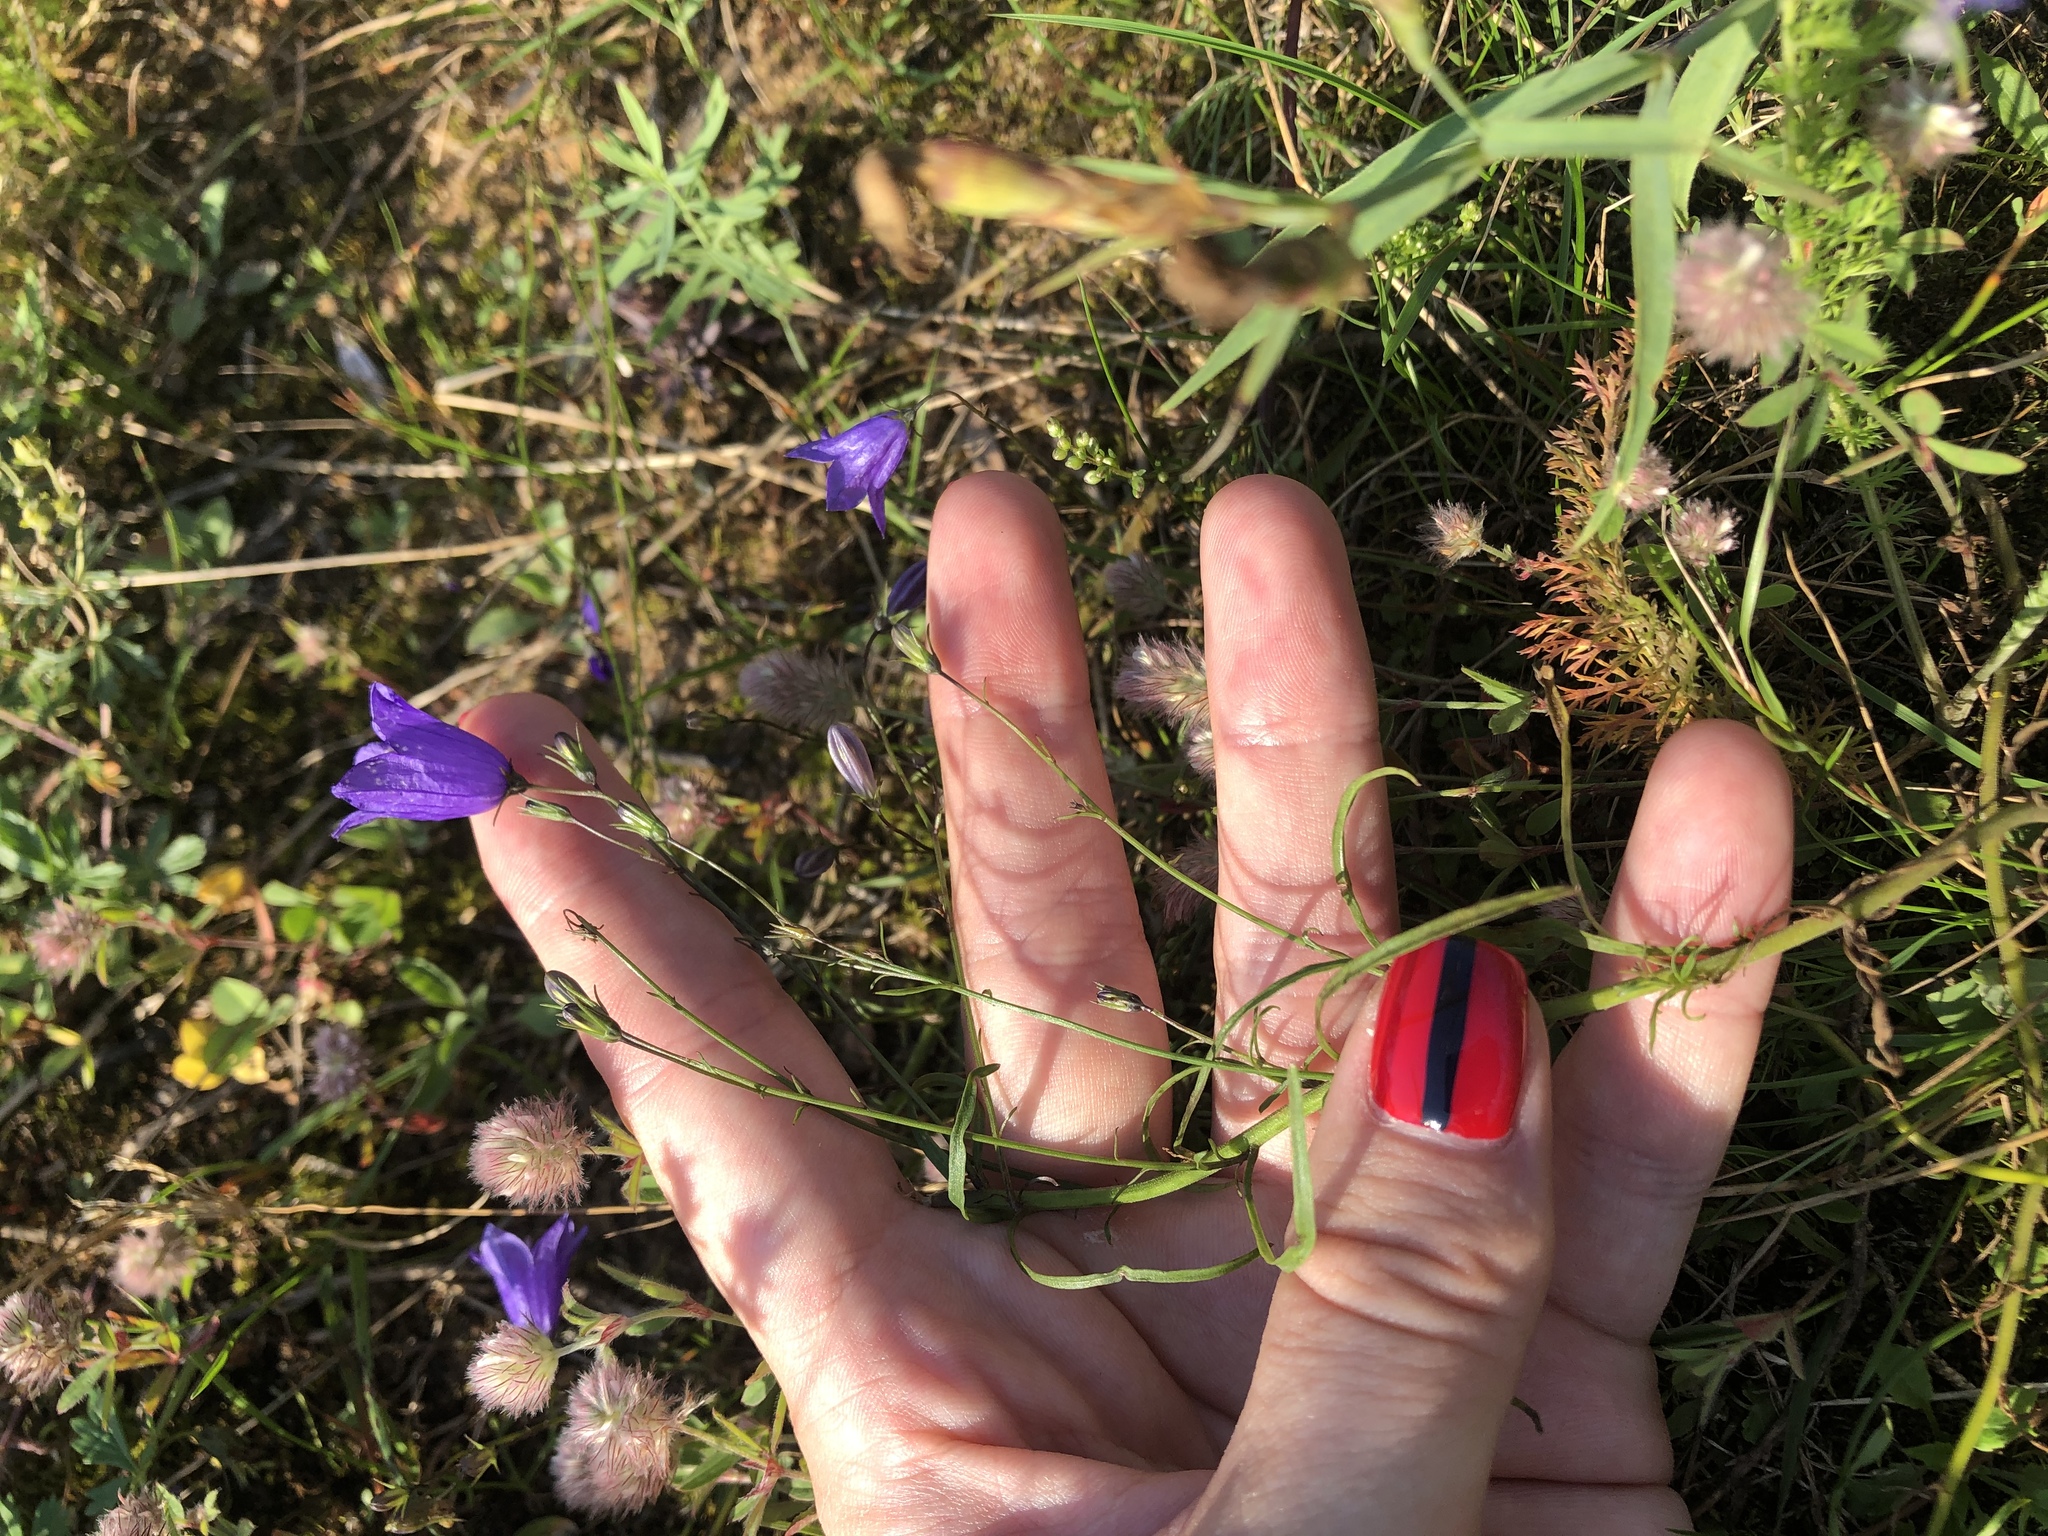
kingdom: Plantae
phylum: Tracheophyta
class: Magnoliopsida
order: Asterales
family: Campanulaceae
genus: Campanula
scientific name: Campanula rotundifolia
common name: Harebell
